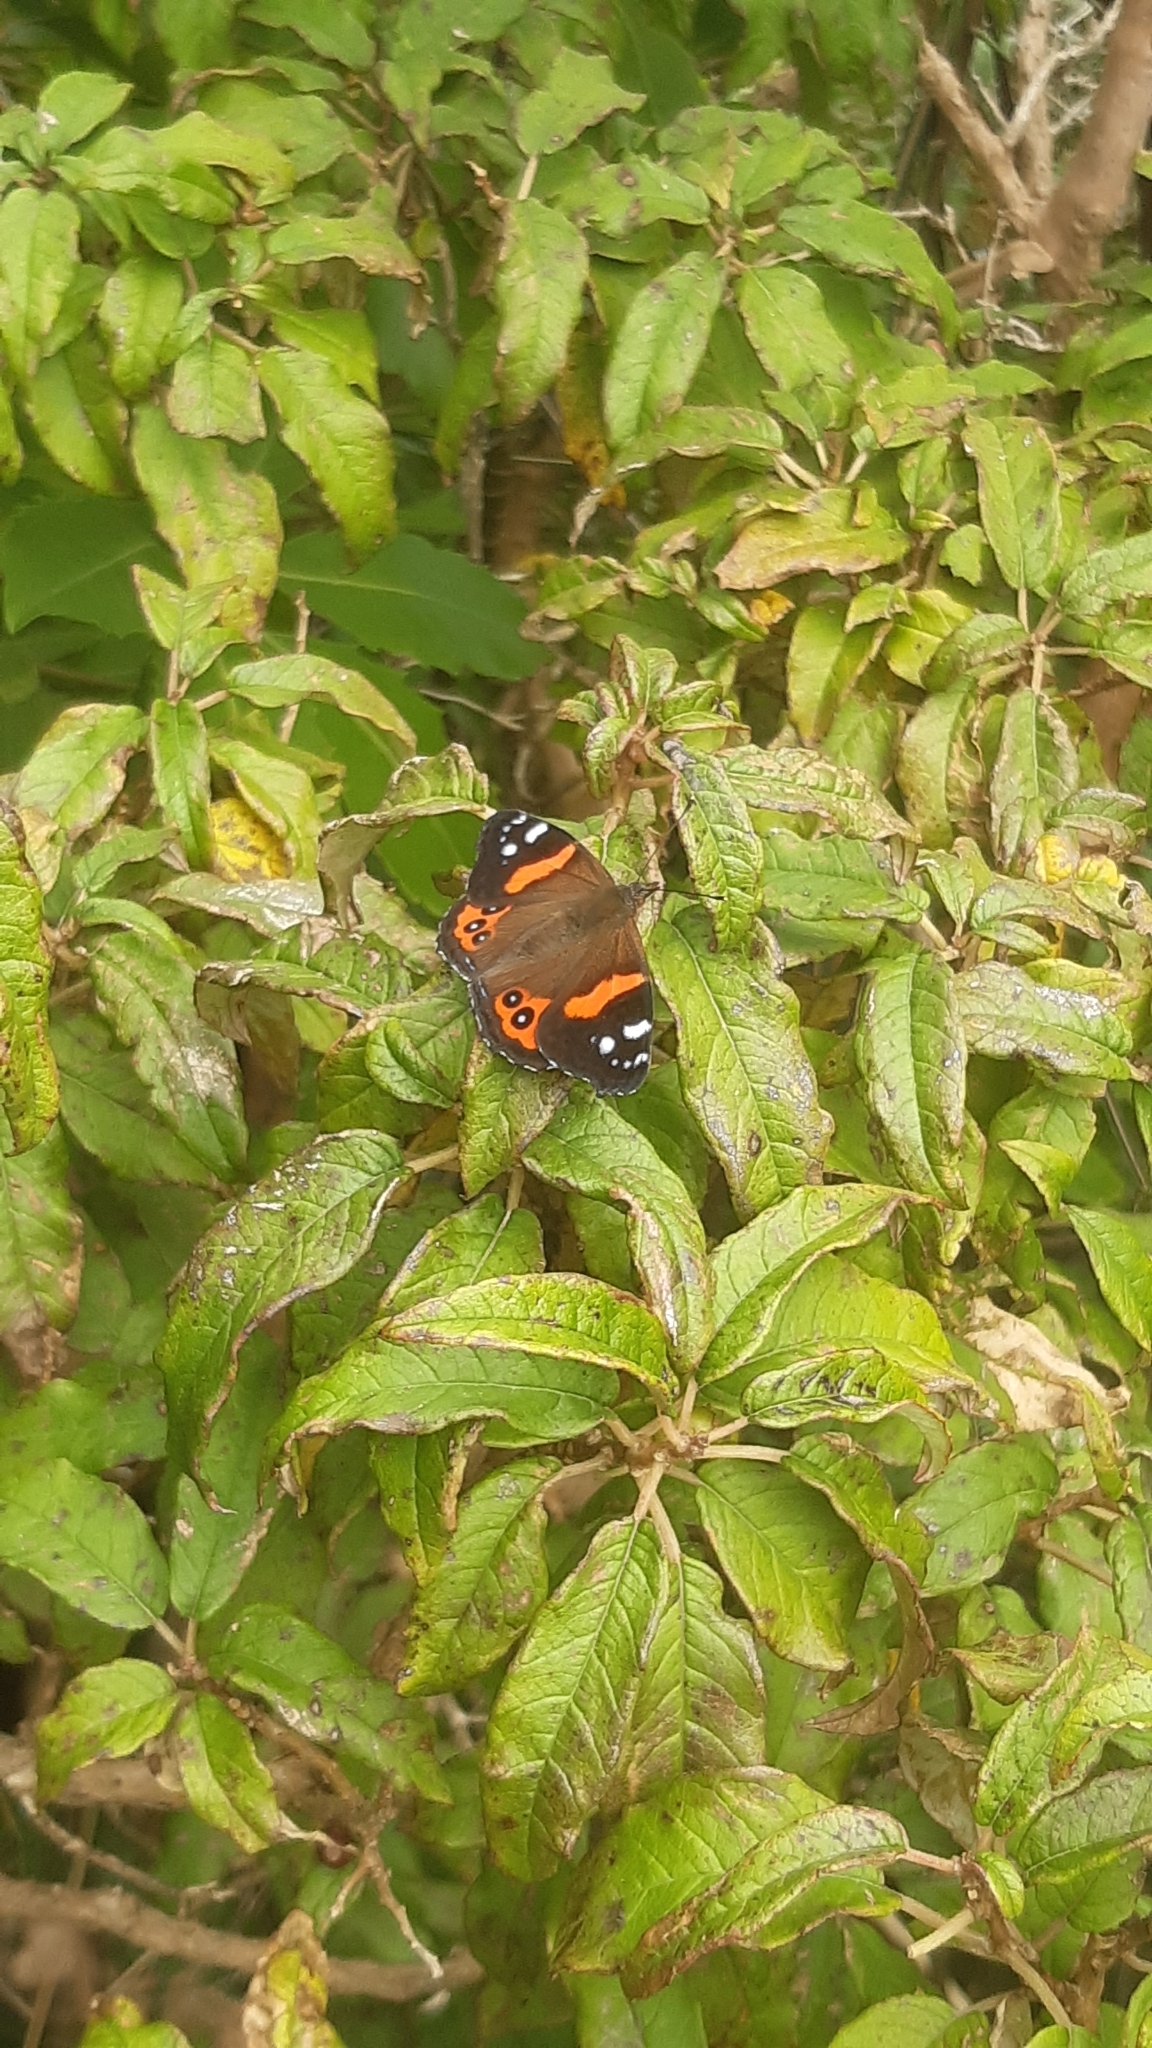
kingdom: Animalia
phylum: Arthropoda
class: Insecta
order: Lepidoptera
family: Nymphalidae
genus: Vanessa
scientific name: Vanessa gonerilla
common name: New zealand red admiral
